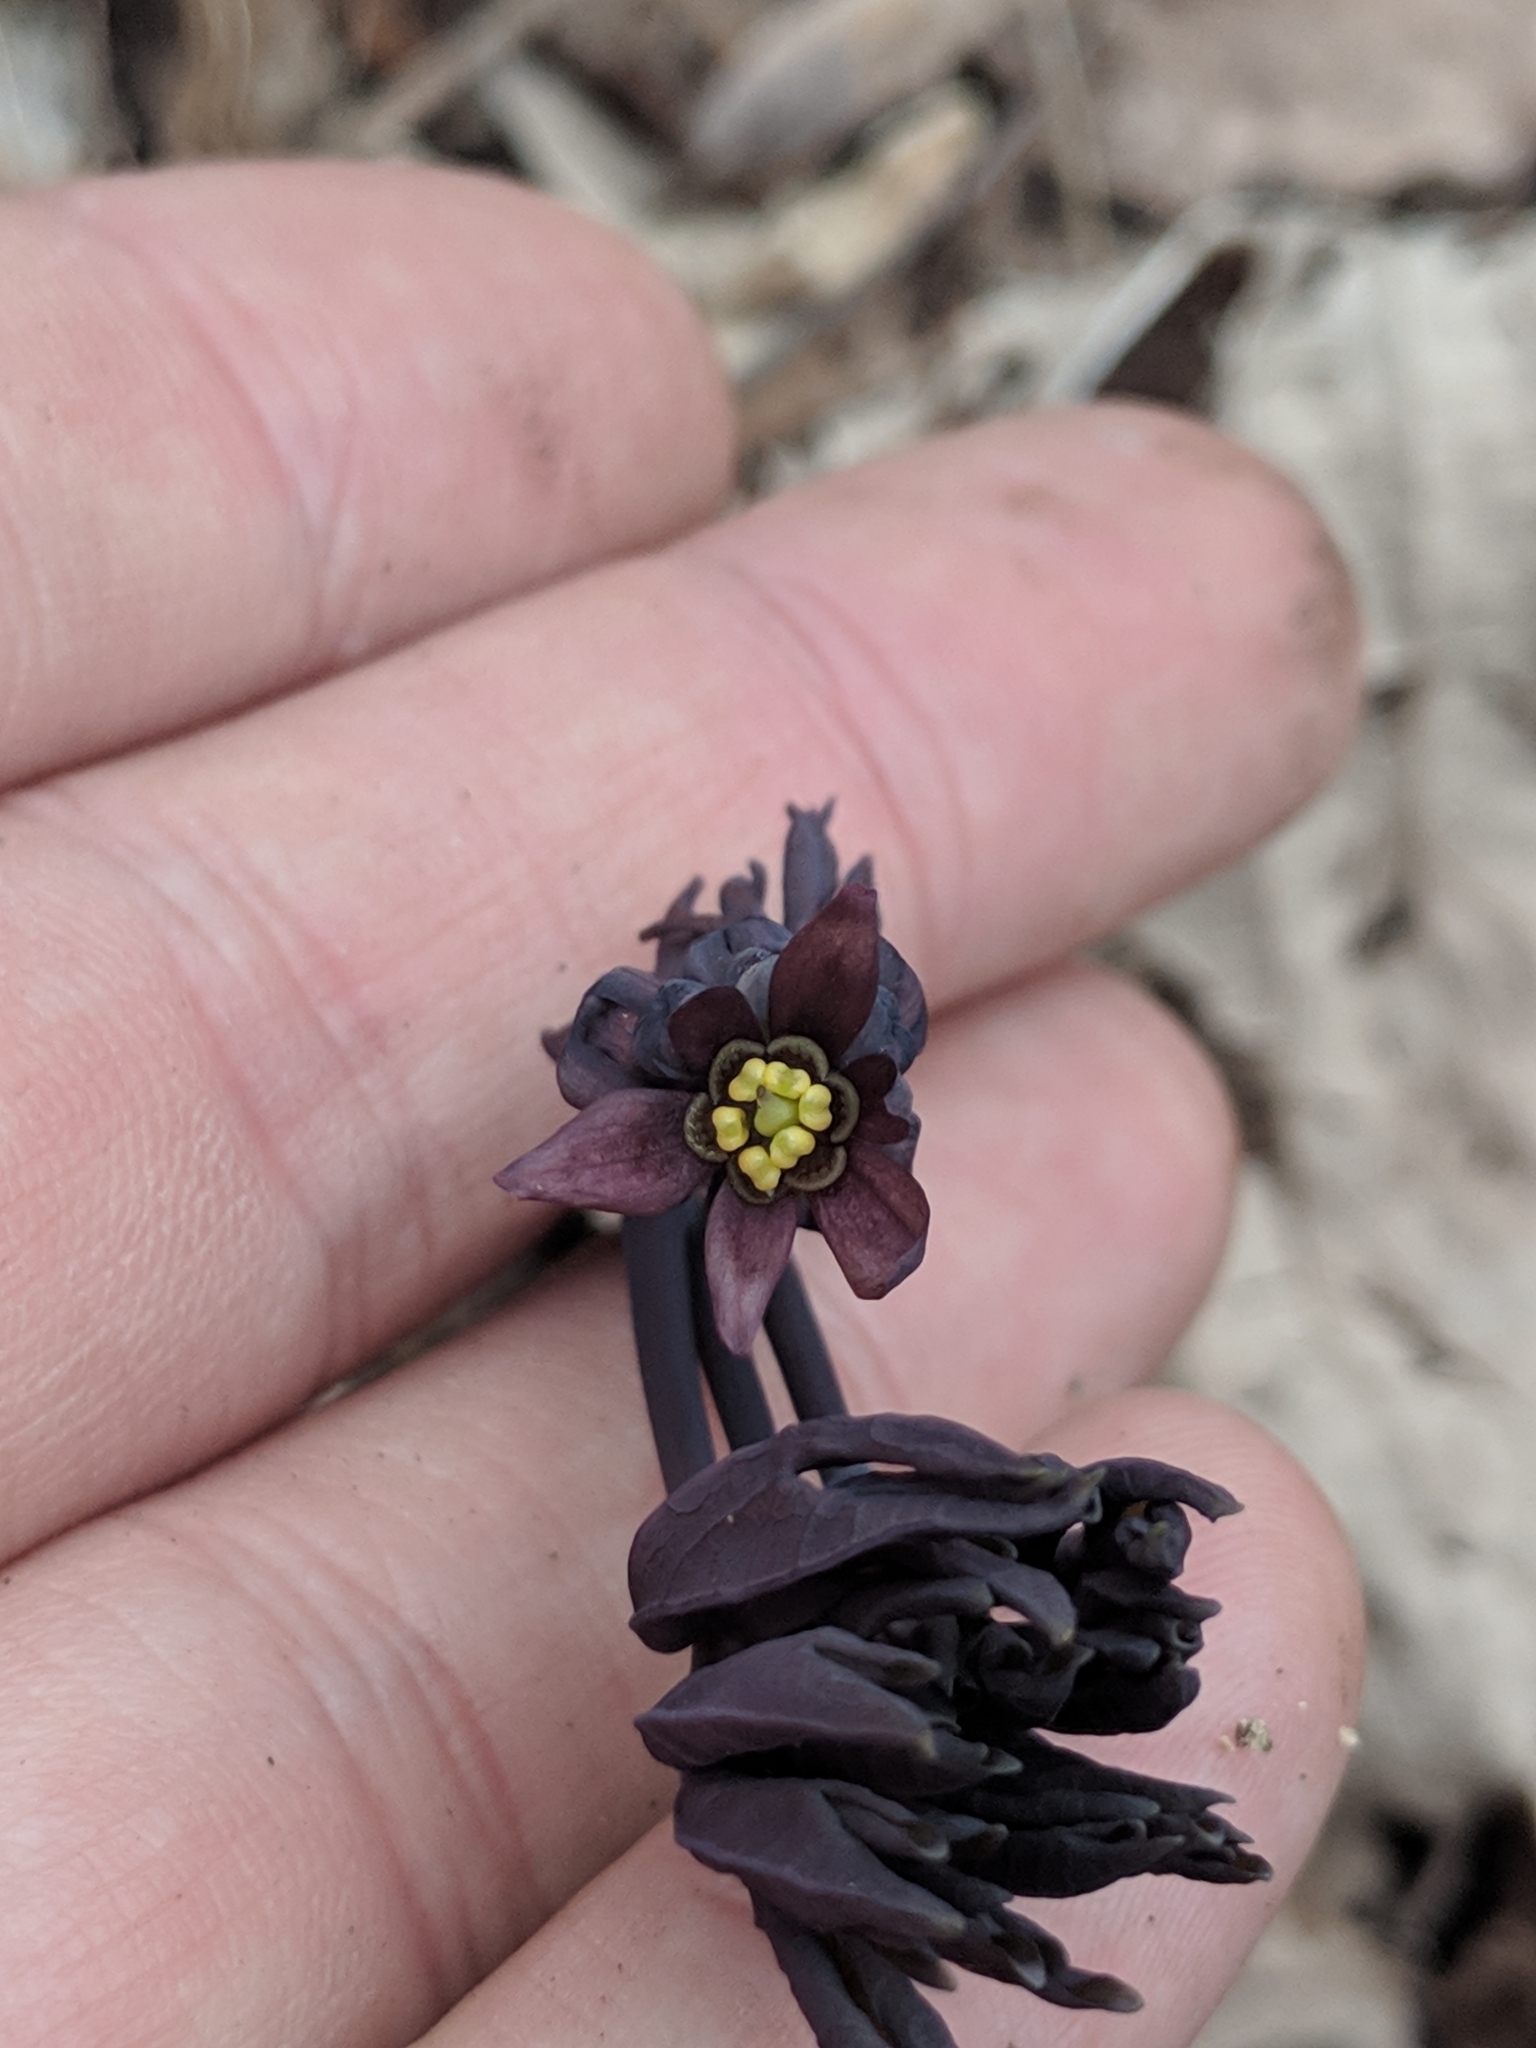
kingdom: Plantae
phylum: Tracheophyta
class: Magnoliopsida
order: Ranunculales
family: Berberidaceae
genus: Caulophyllum
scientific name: Caulophyllum giganteum
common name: Blue cohosh
